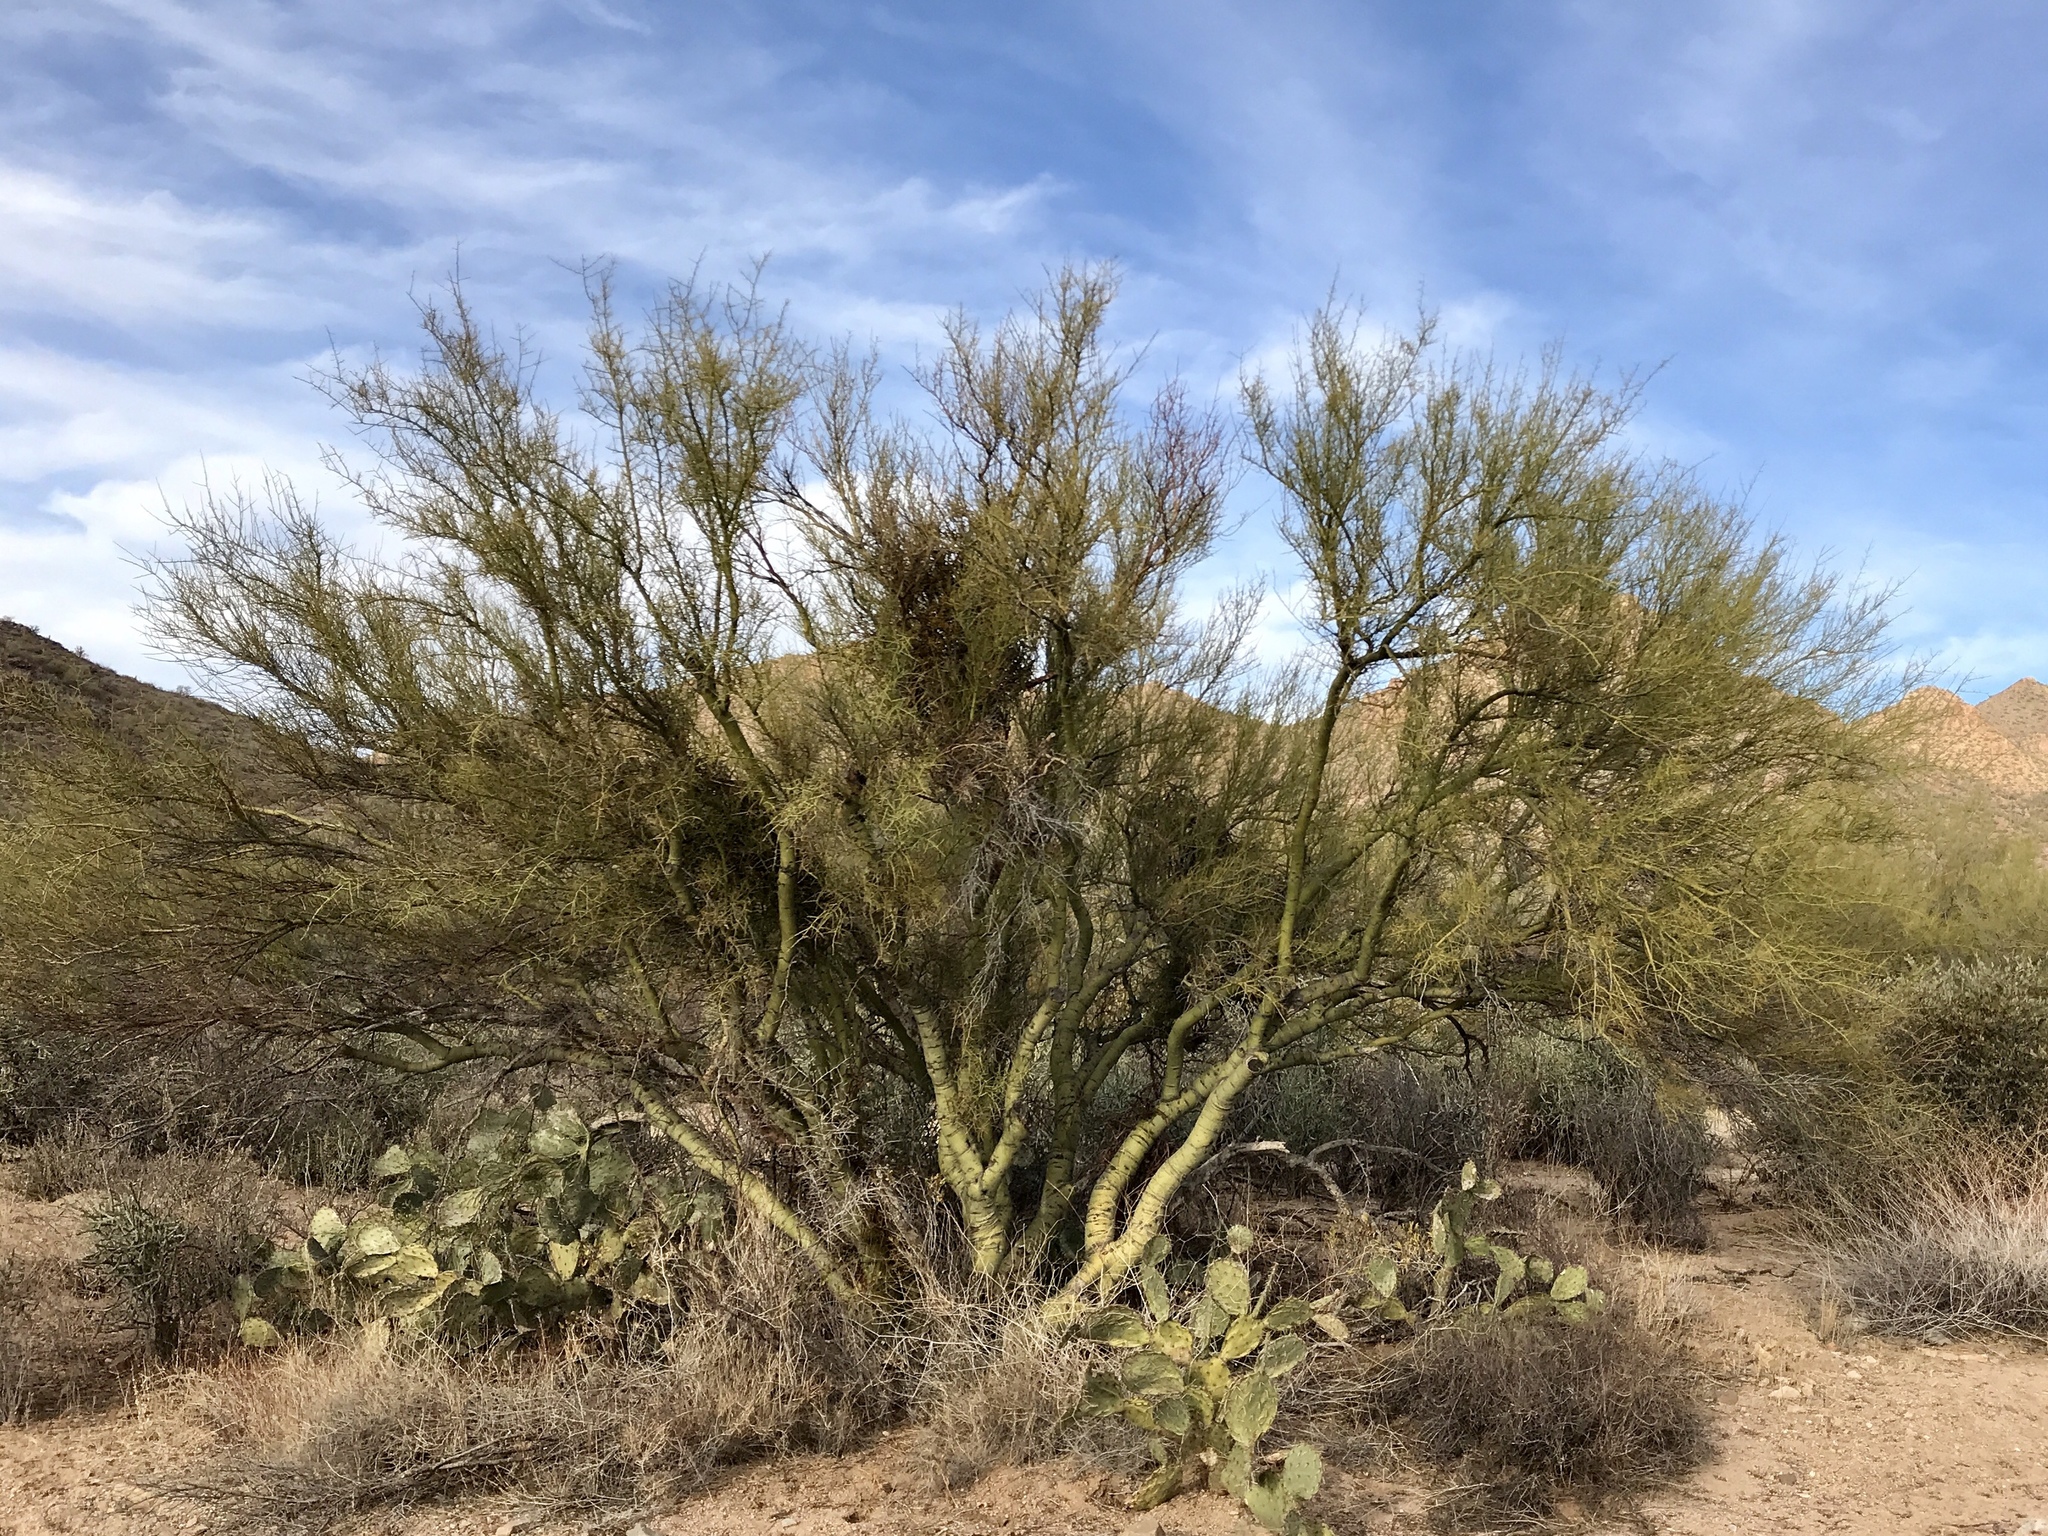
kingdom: Plantae
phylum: Tracheophyta
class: Magnoliopsida
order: Fabales
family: Fabaceae
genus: Parkinsonia
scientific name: Parkinsonia microphylla
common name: Yellow paloverde
